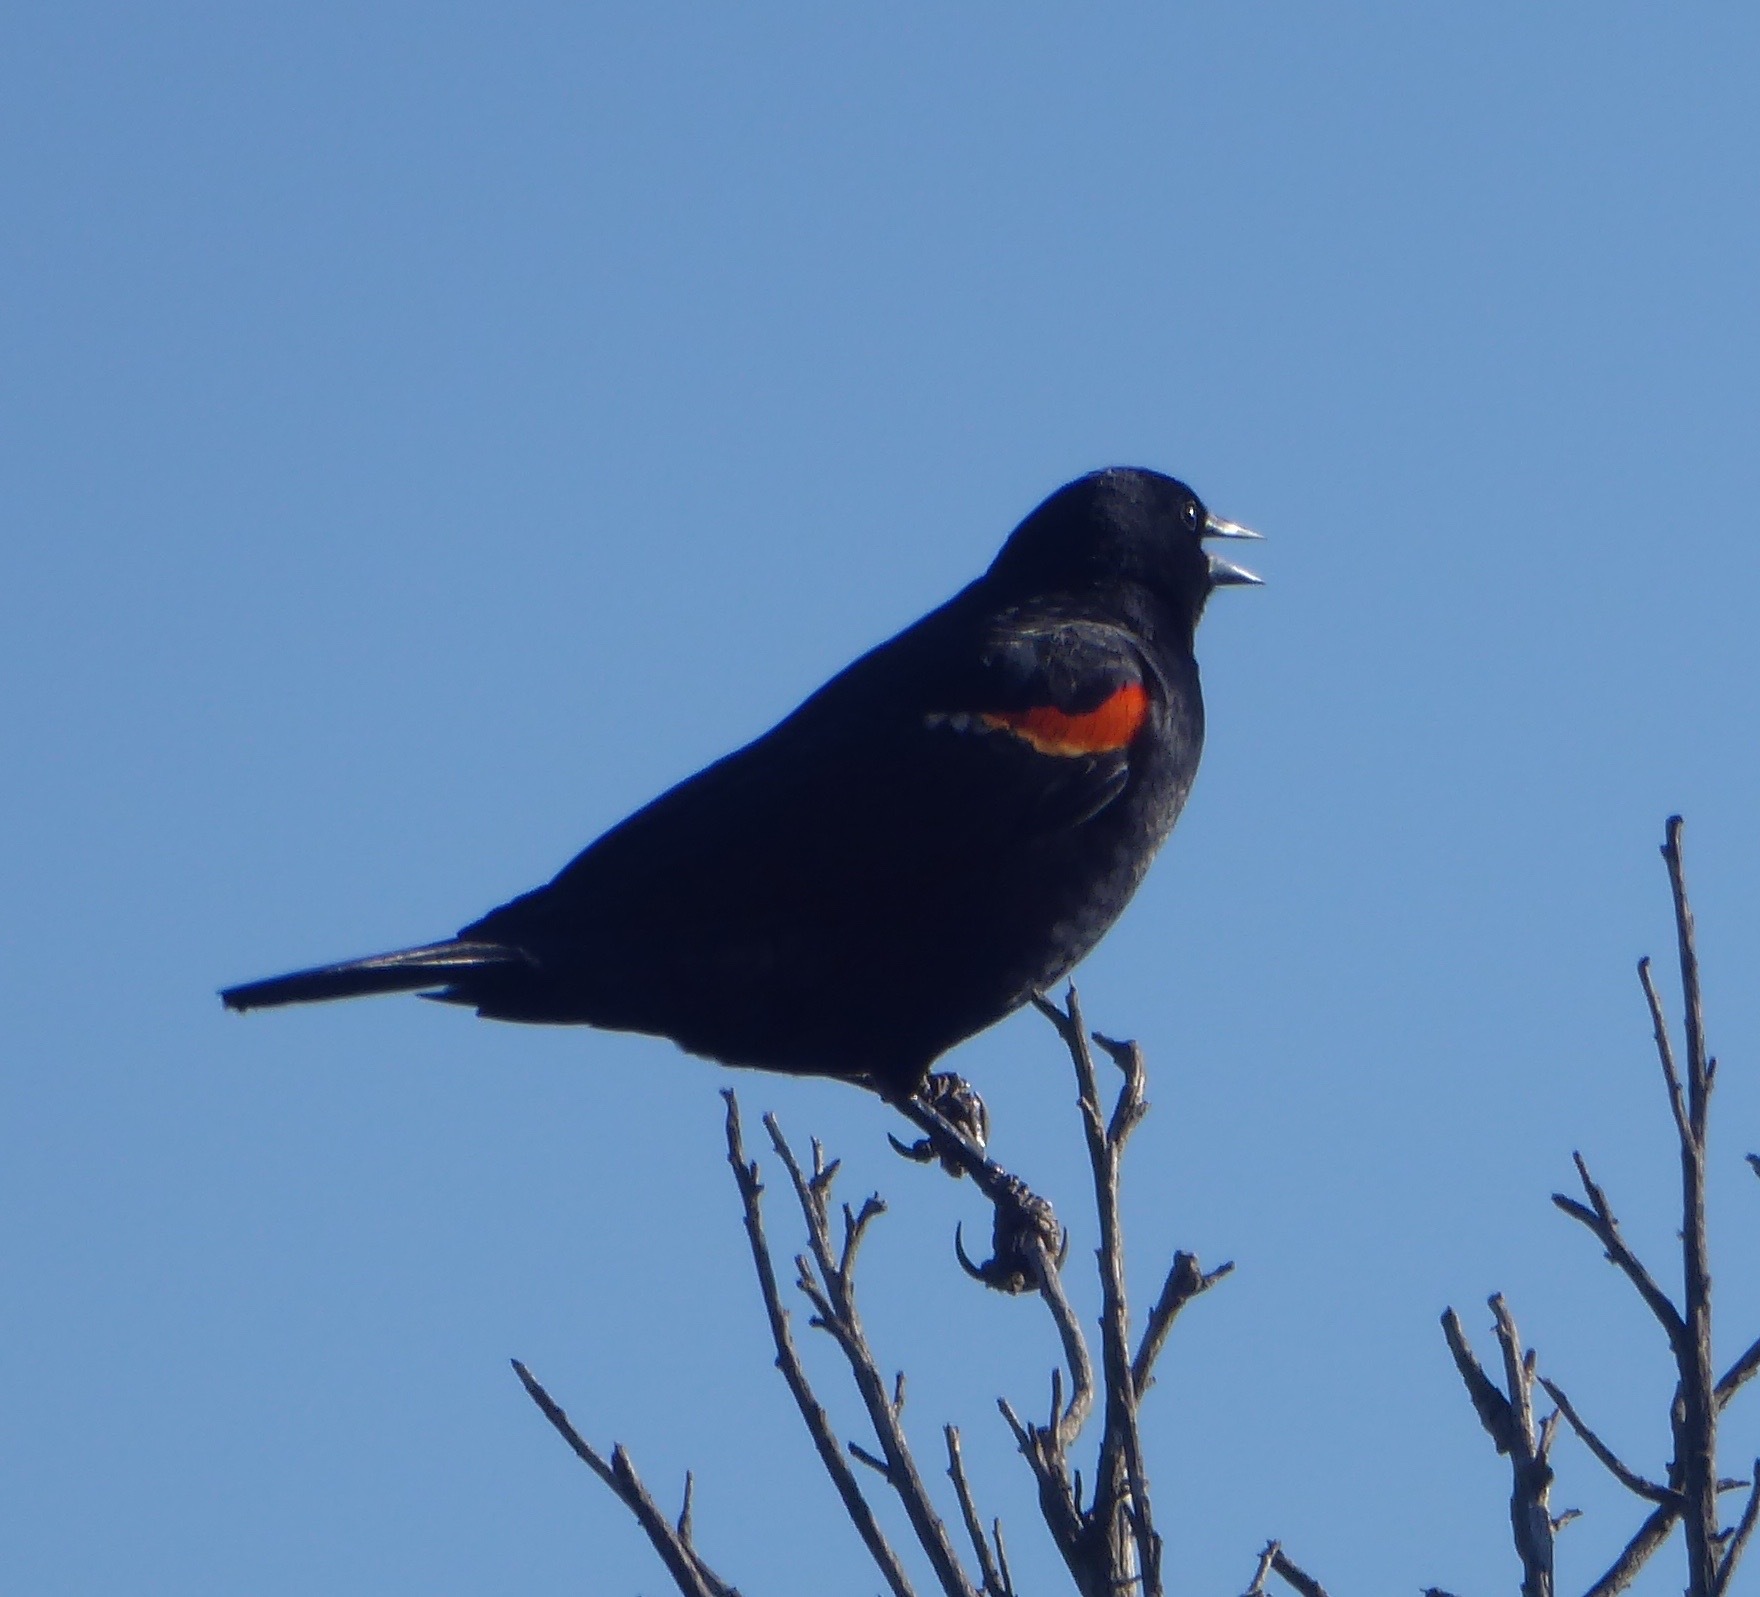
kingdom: Animalia
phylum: Chordata
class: Aves
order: Passeriformes
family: Icteridae
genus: Agelaius
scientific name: Agelaius phoeniceus
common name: Red-winged blackbird
